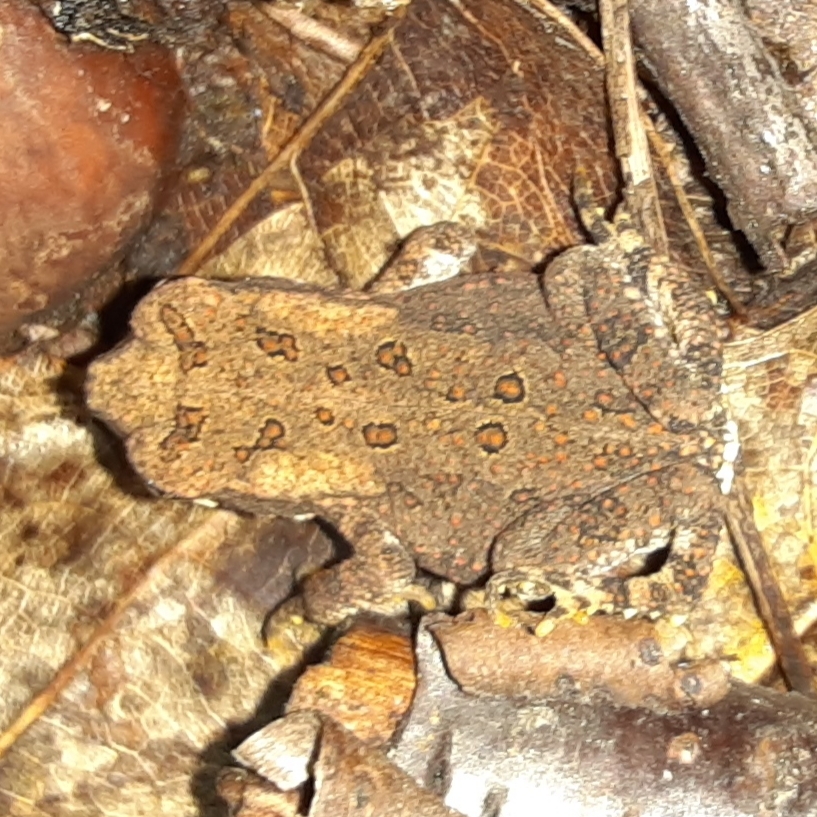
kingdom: Animalia
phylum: Chordata
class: Amphibia
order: Anura
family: Bufonidae
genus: Anaxyrus
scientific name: Anaxyrus americanus
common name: American toad
